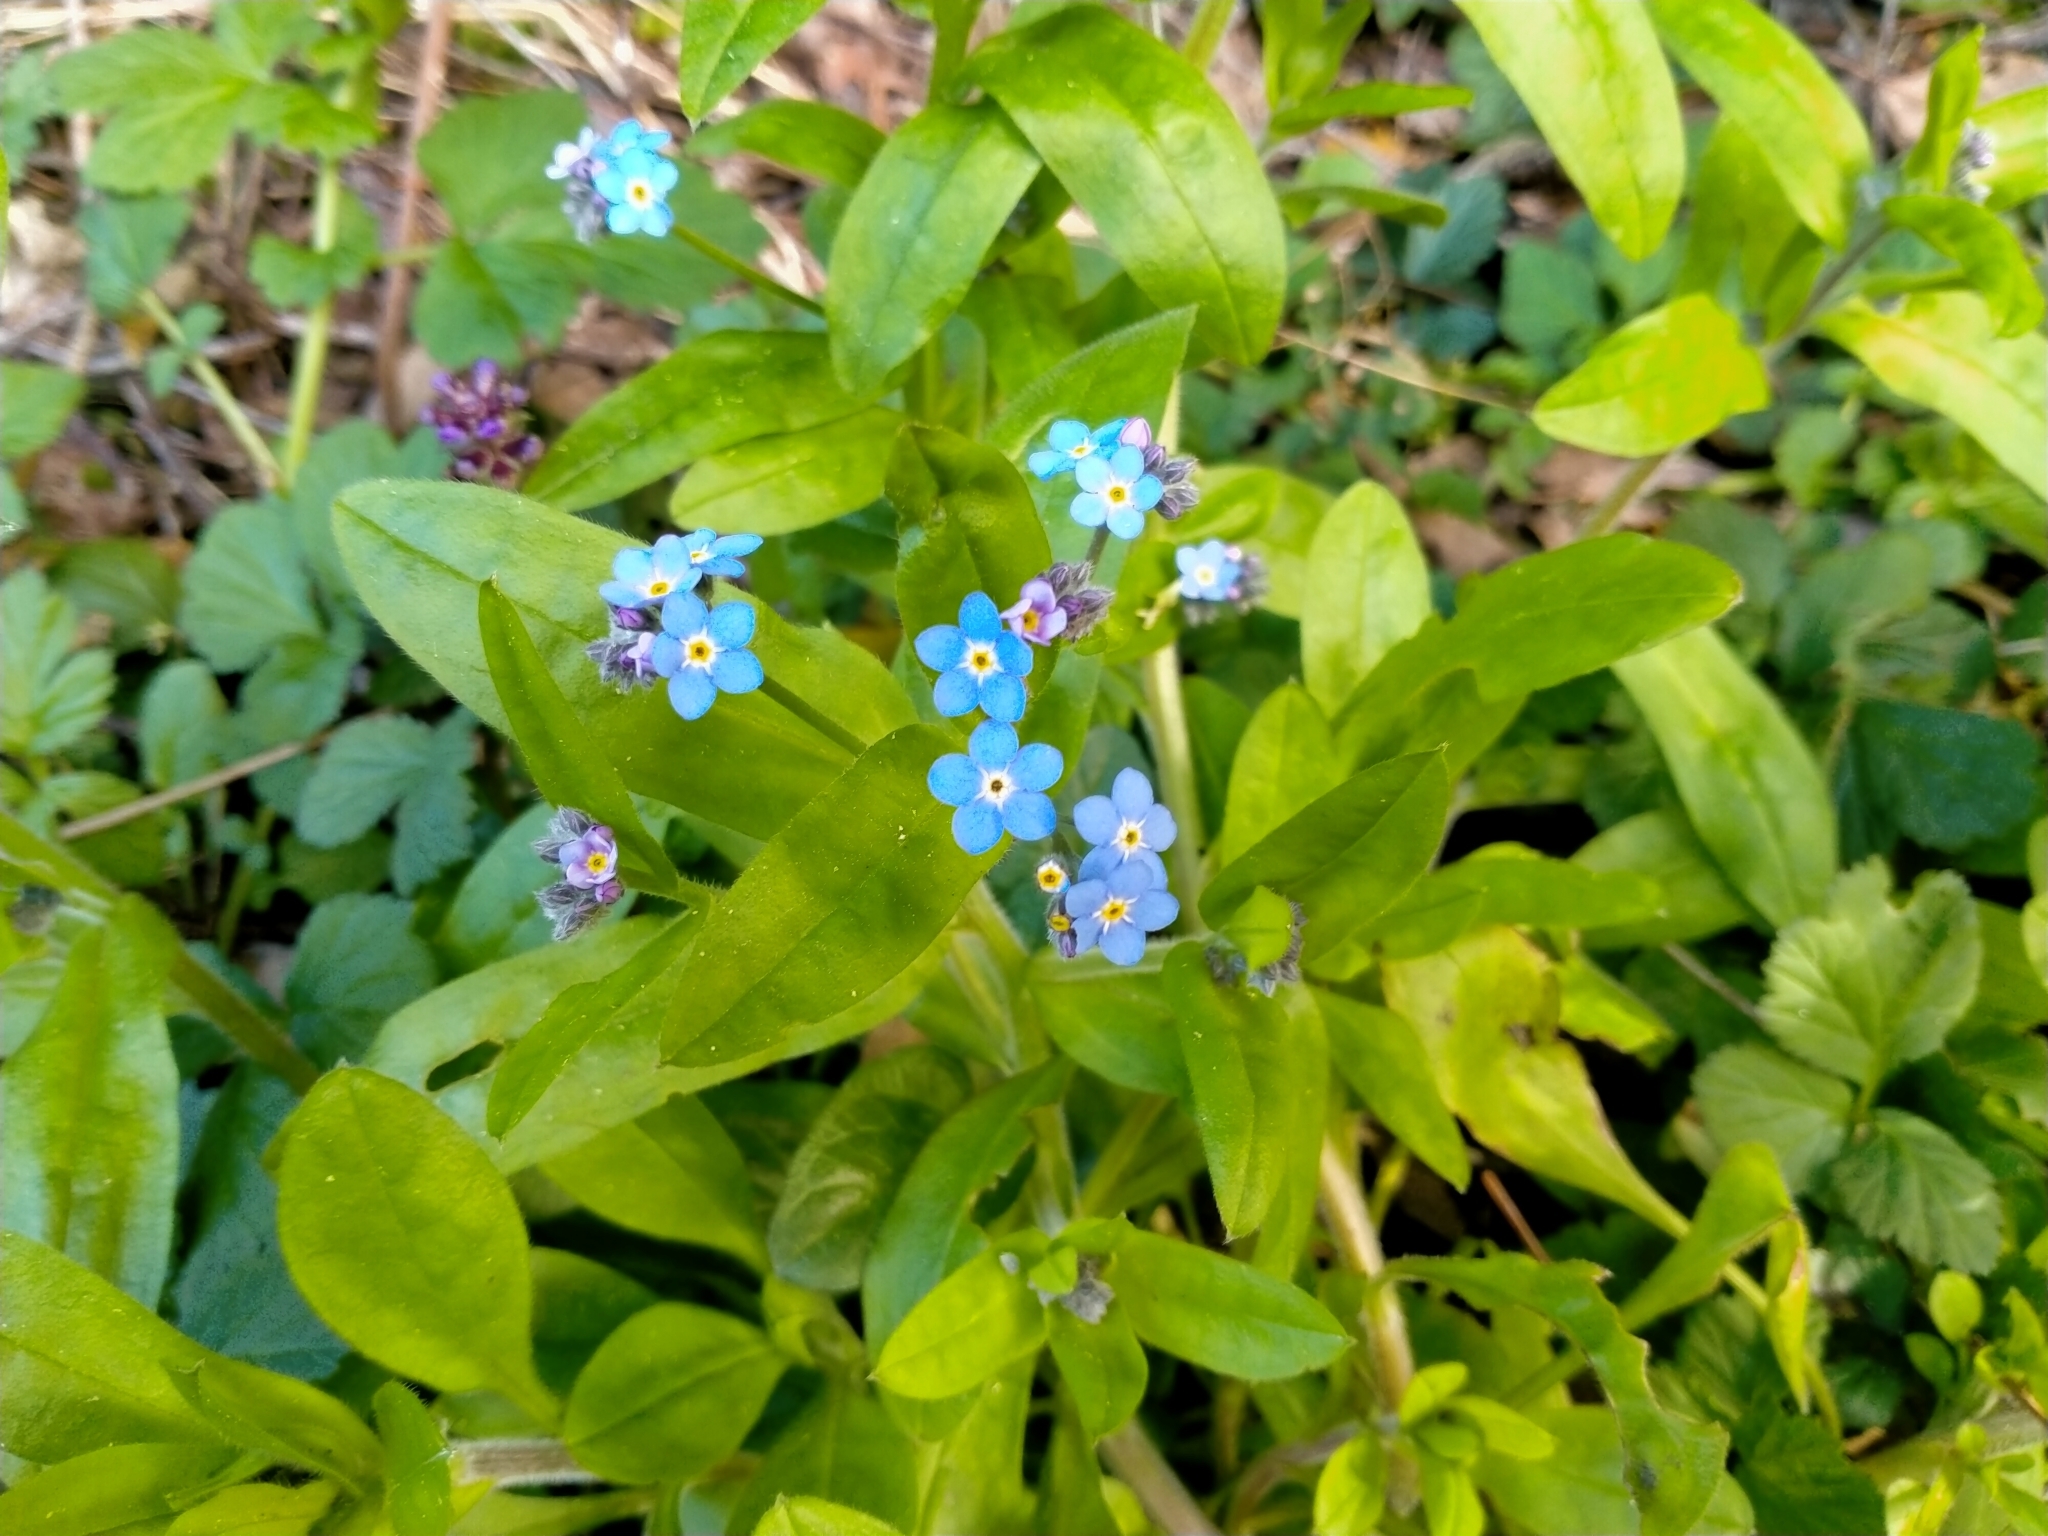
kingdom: Plantae
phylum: Tracheophyta
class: Magnoliopsida
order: Boraginales
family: Boraginaceae
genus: Myosotis
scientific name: Myosotis sylvatica
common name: Wood forget-me-not
